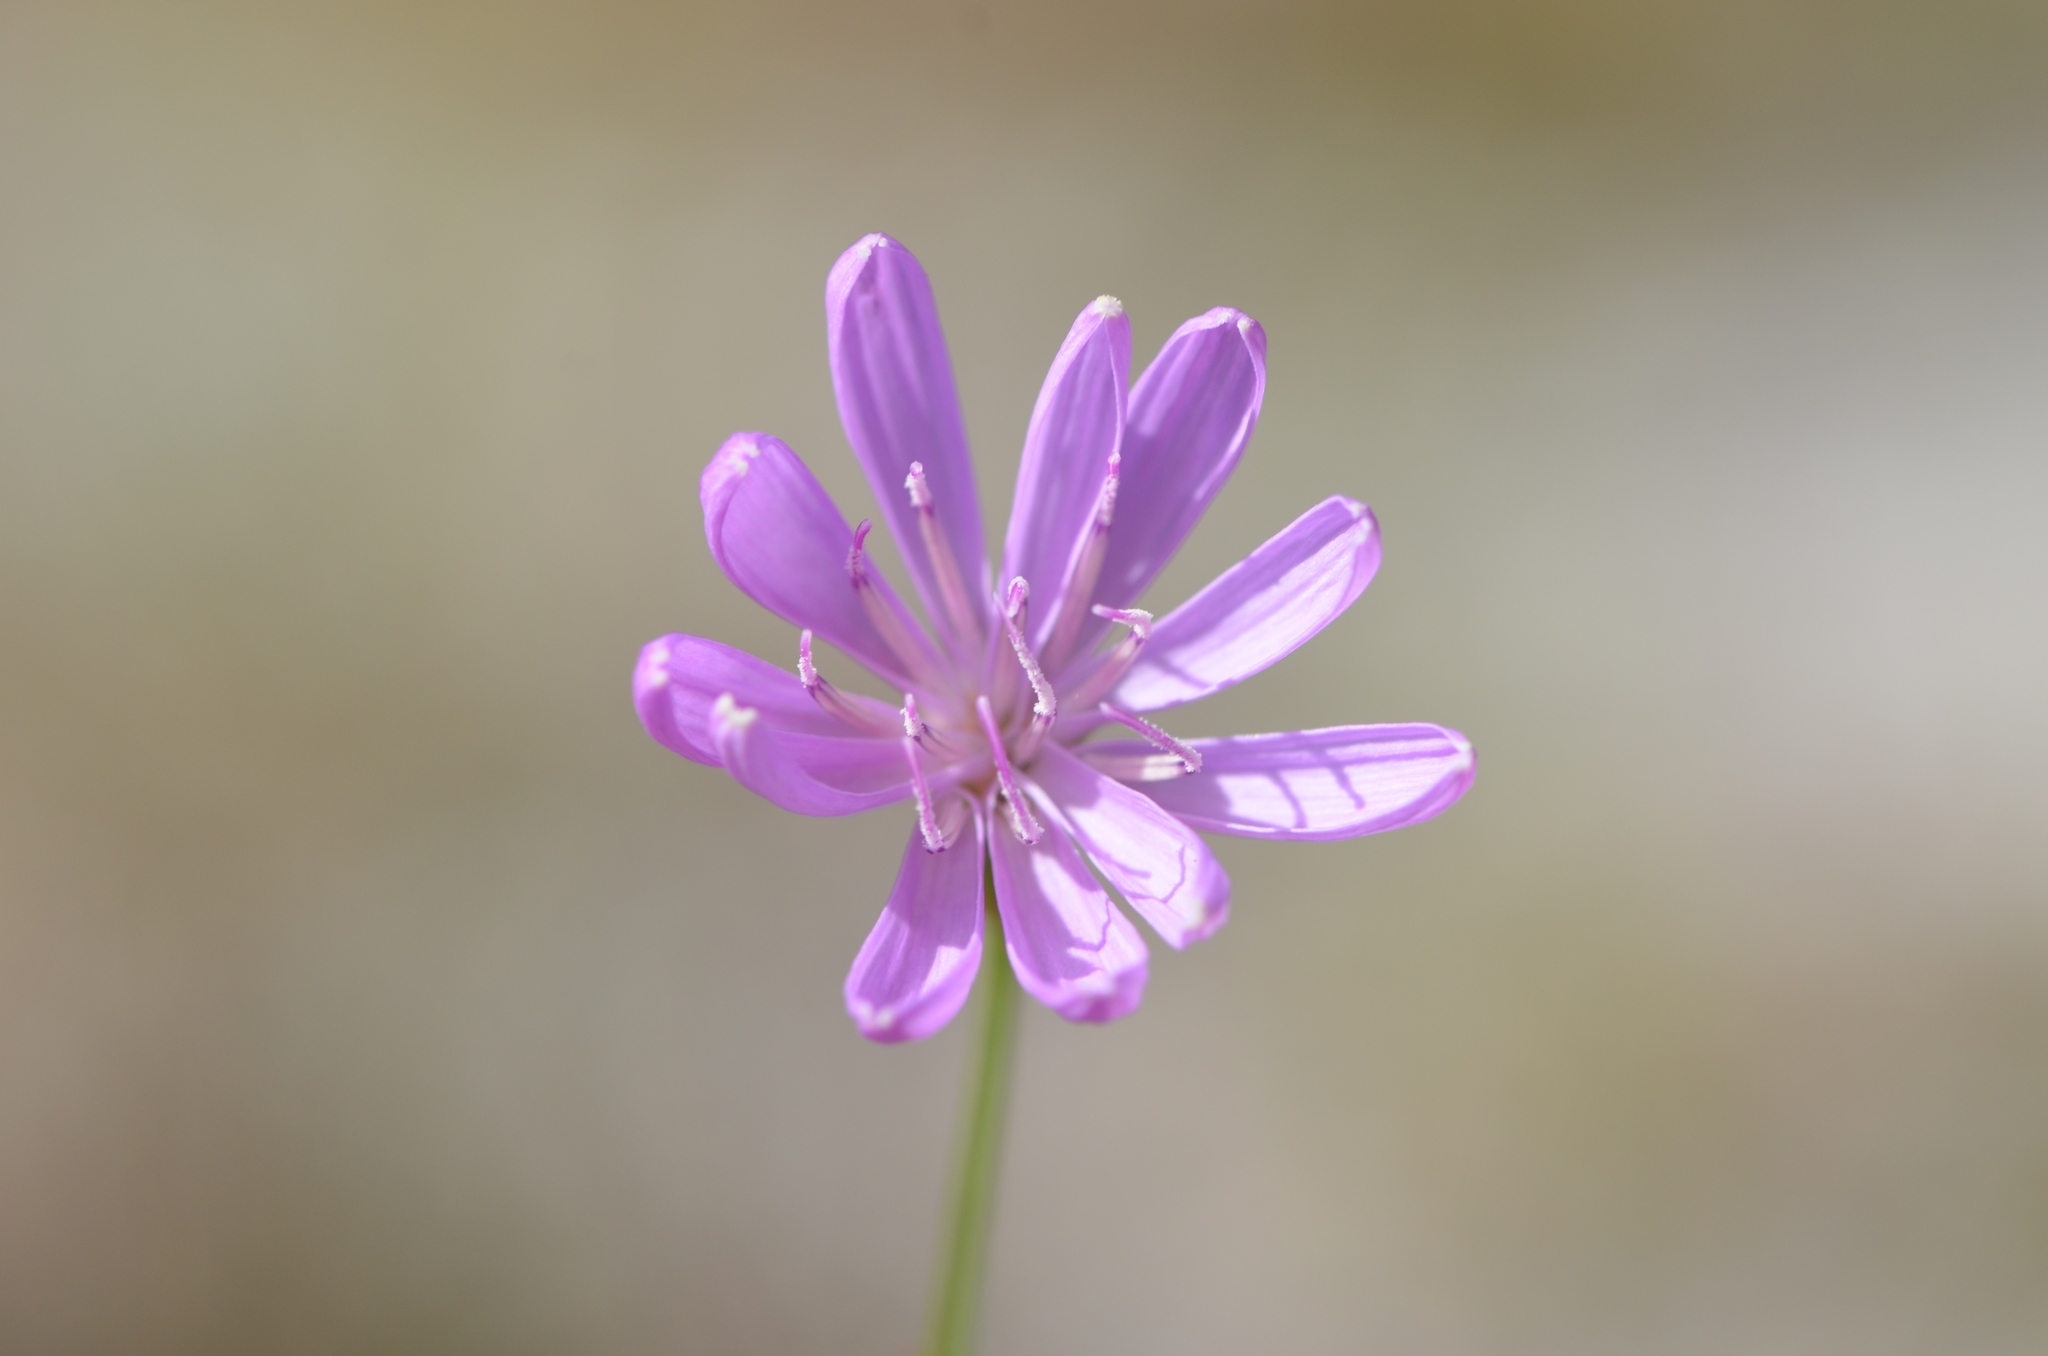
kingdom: Plantae
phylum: Tracheophyta
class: Magnoliopsida
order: Asterales
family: Asteraceae
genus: Lygodesmia
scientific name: Lygodesmia aphylla
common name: Rose-rush
